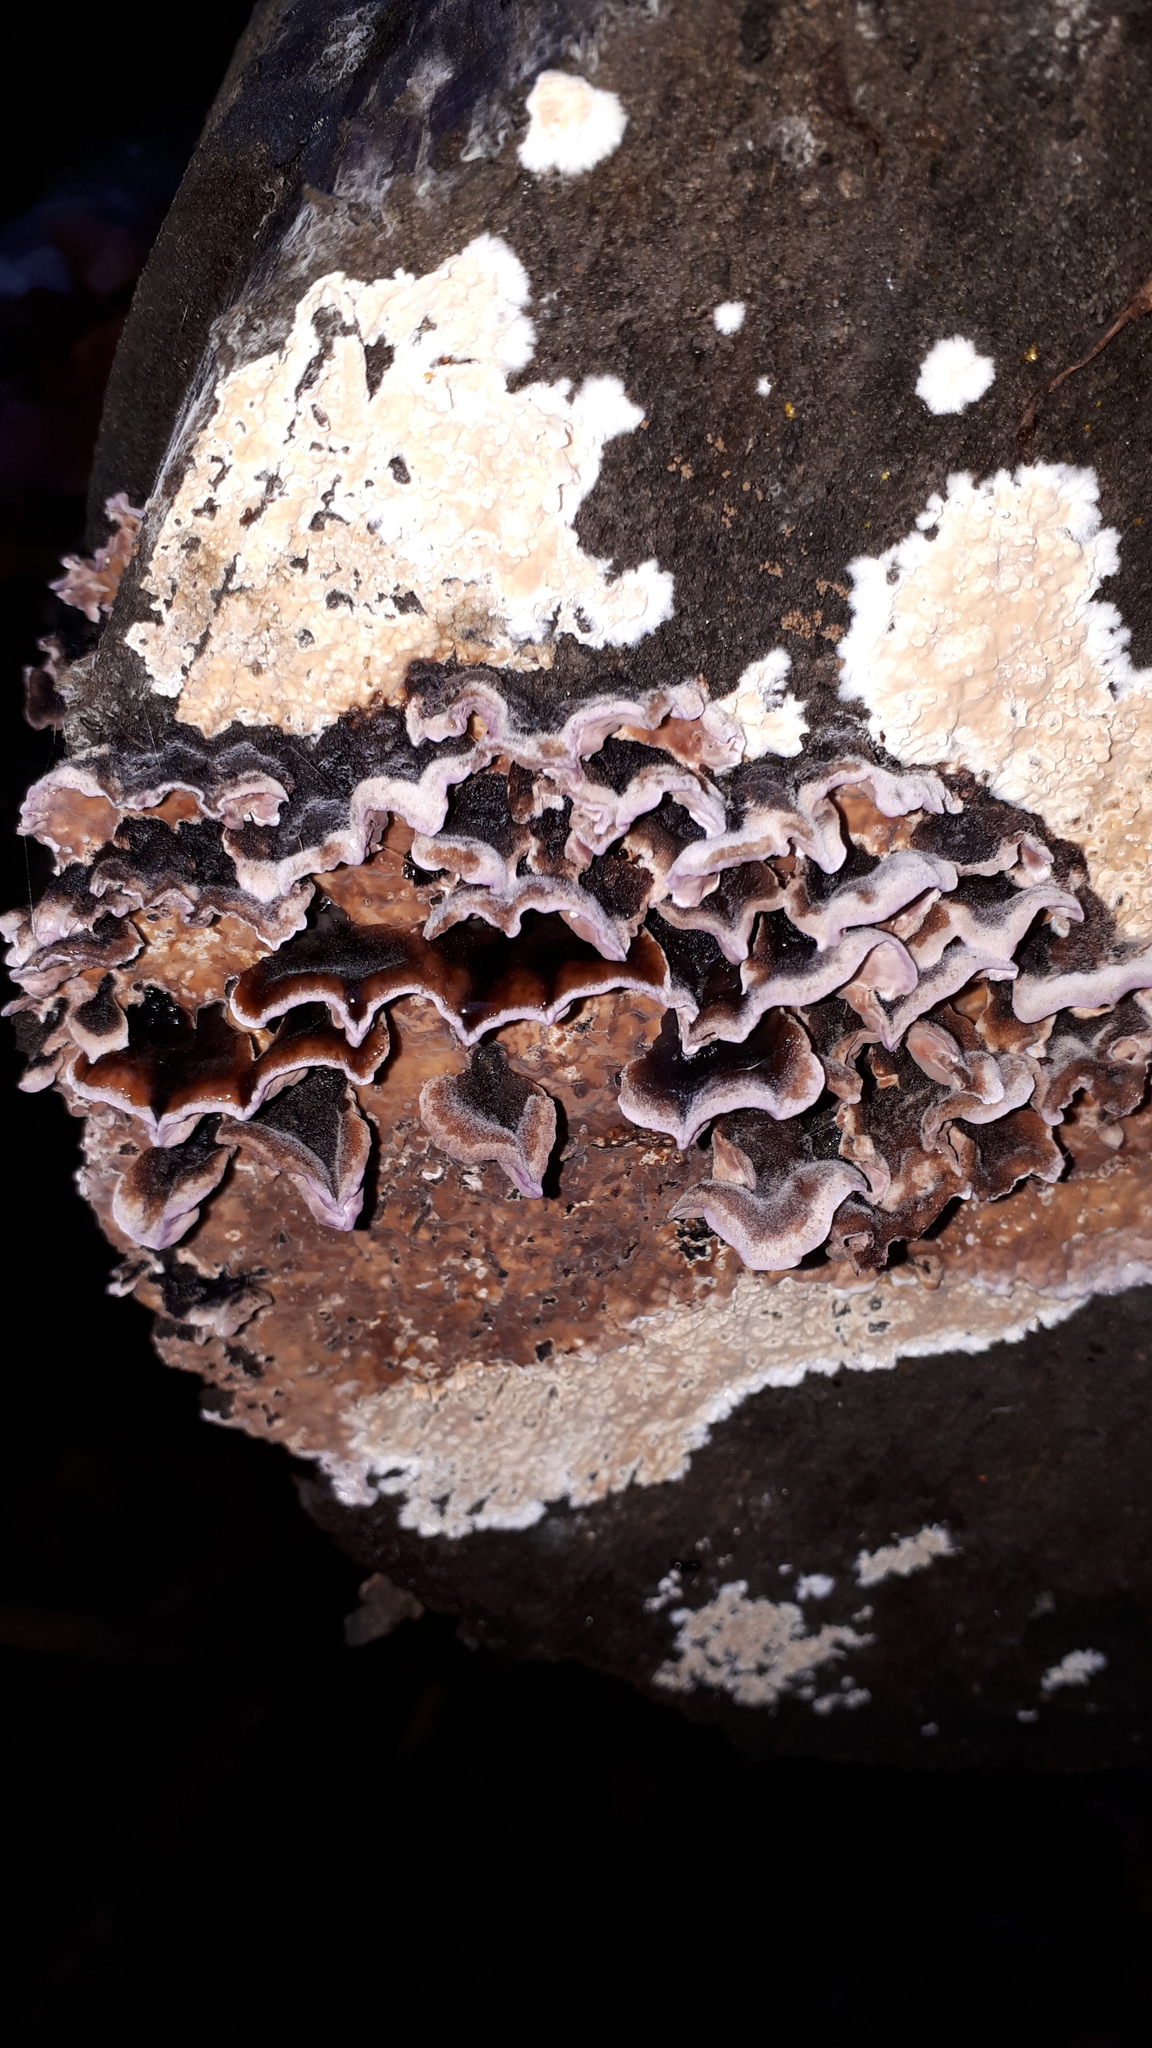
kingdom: Fungi
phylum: Basidiomycota
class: Agaricomycetes
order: Agaricales
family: Cyphellaceae
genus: Chondrostereum
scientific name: Chondrostereum purpureum
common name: Silver leaf disease
